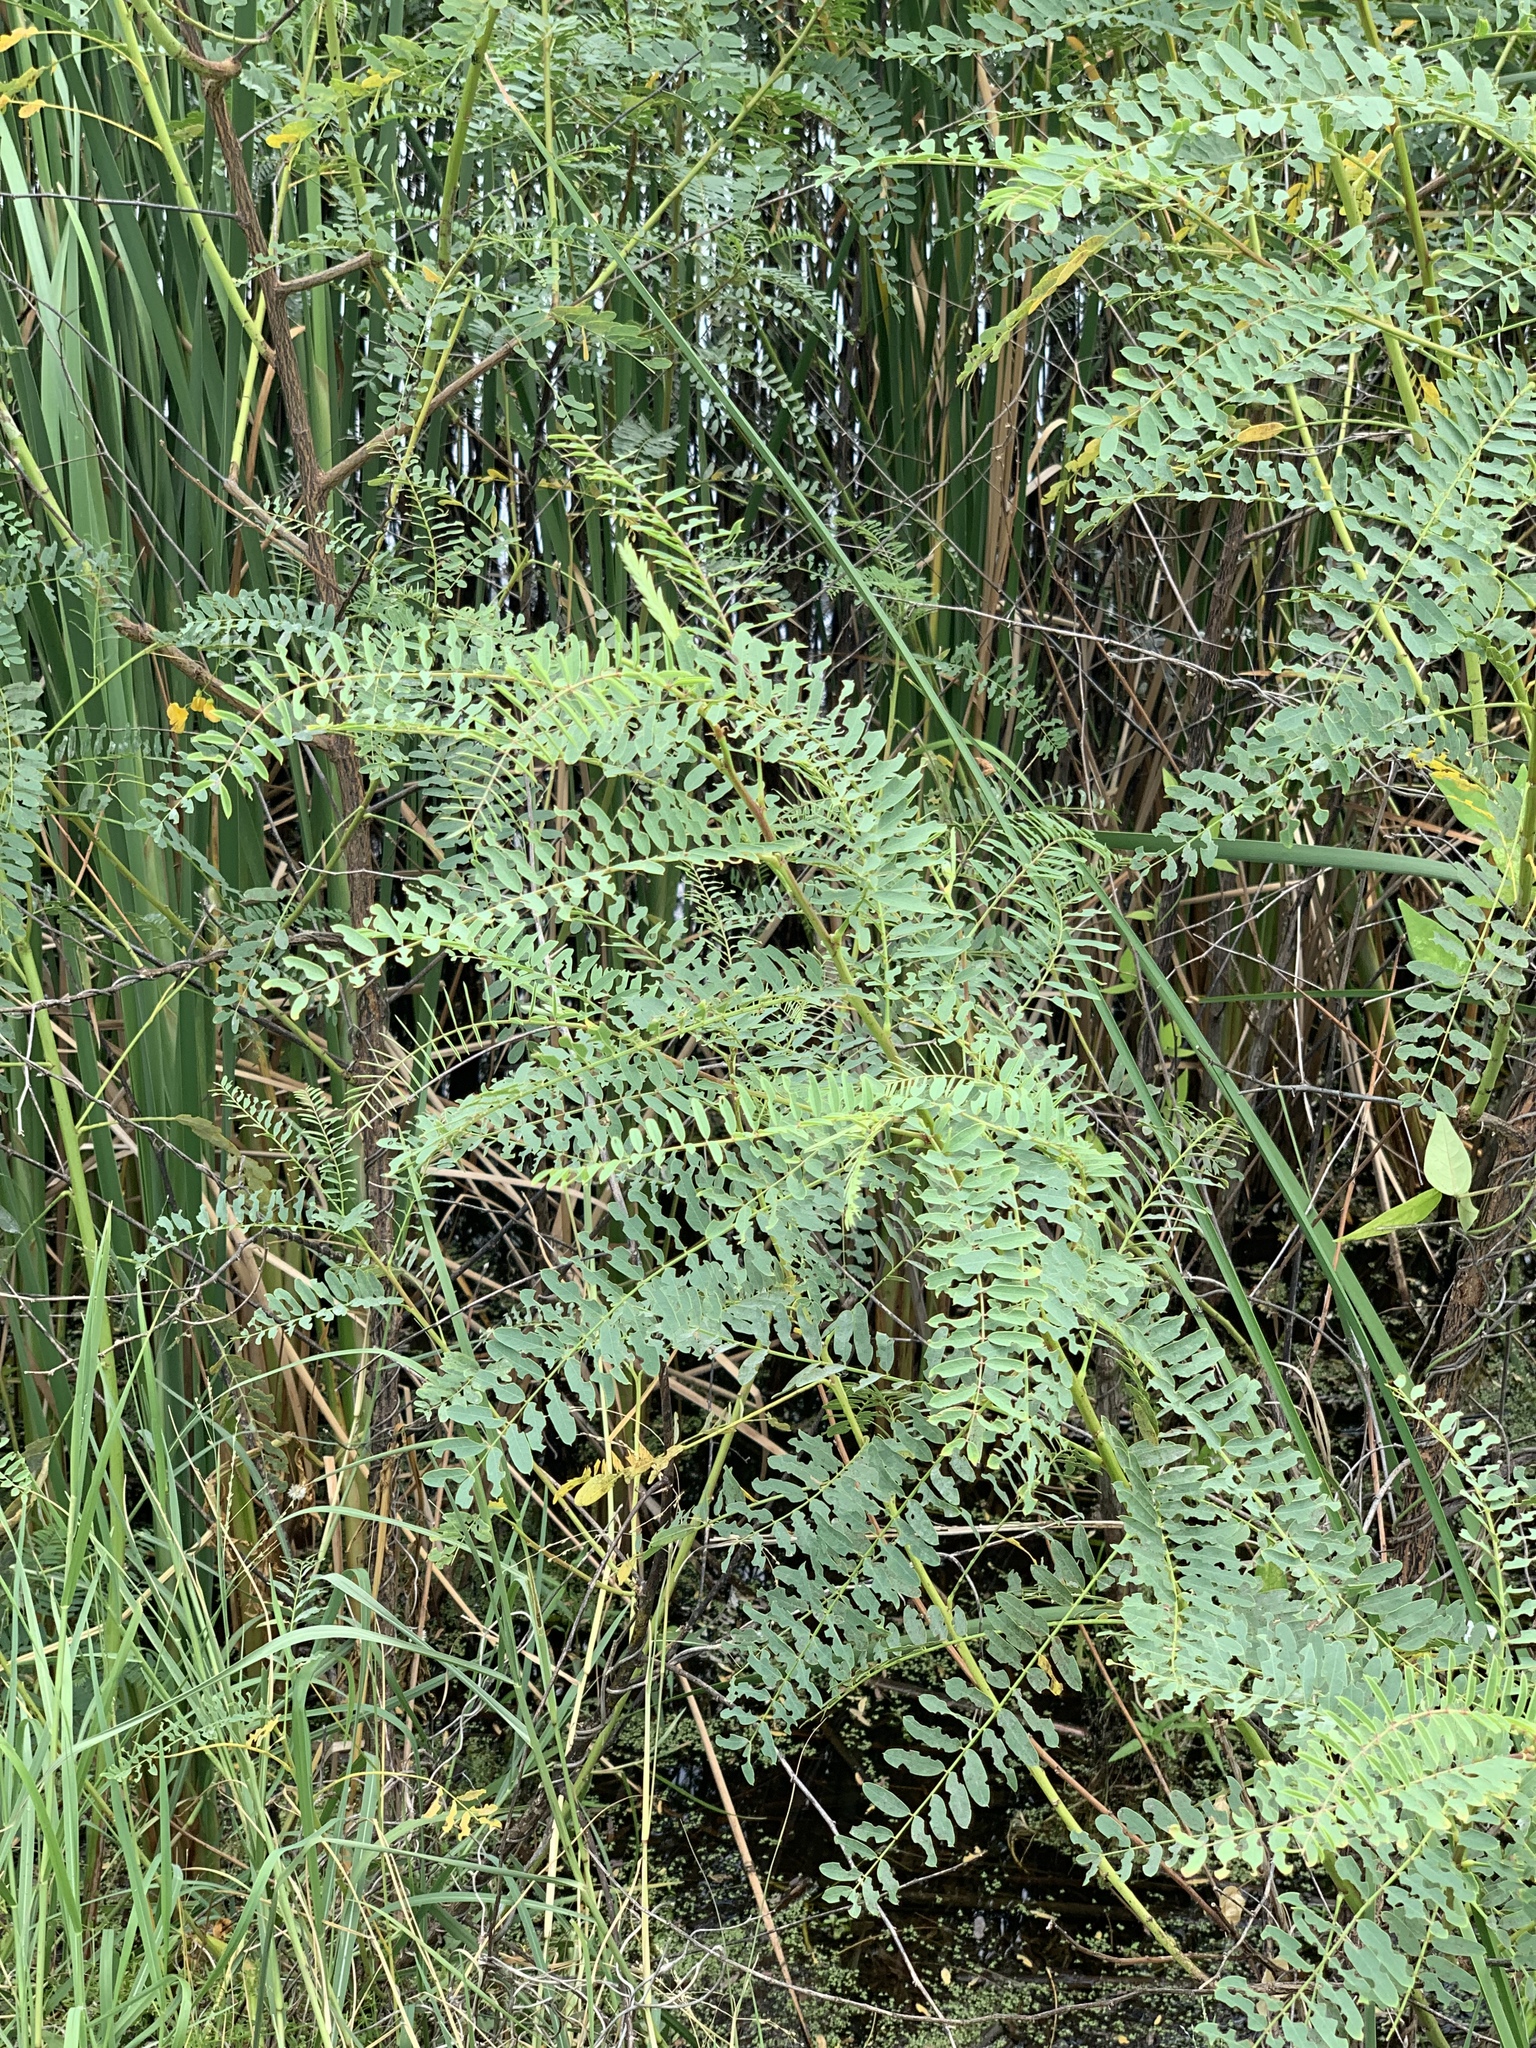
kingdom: Plantae
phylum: Tracheophyta
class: Magnoliopsida
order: Fabales
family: Fabaceae
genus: Sesbania
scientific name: Sesbania drummondii
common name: Poison-bean
